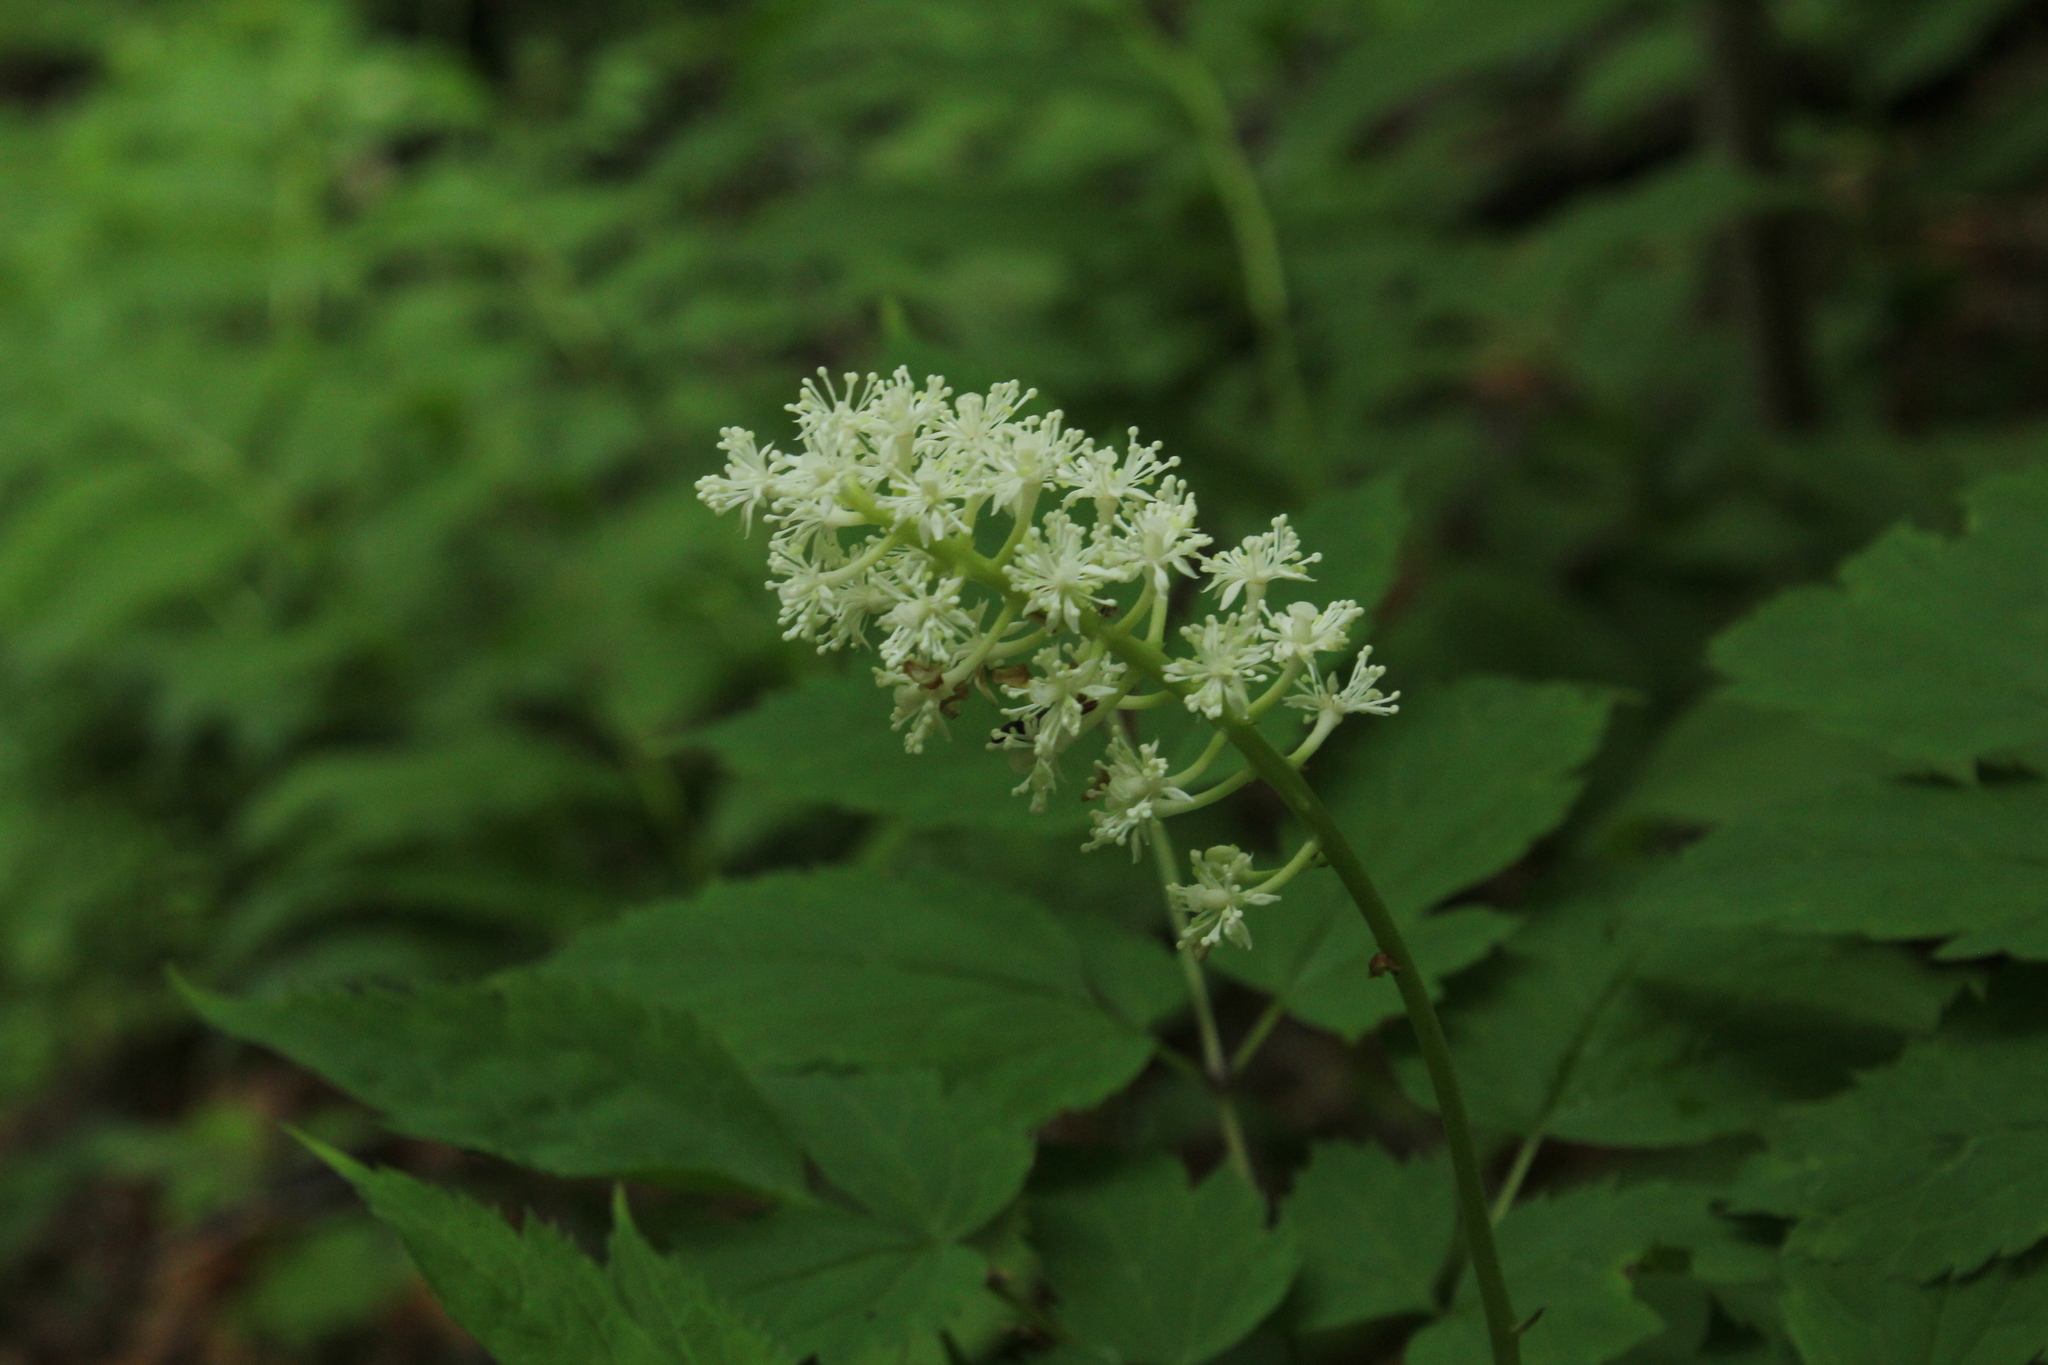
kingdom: Plantae
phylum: Tracheophyta
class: Magnoliopsida
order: Ranunculales
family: Ranunculaceae
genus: Actaea
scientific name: Actaea pachypoda
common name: Doll's-eyes
